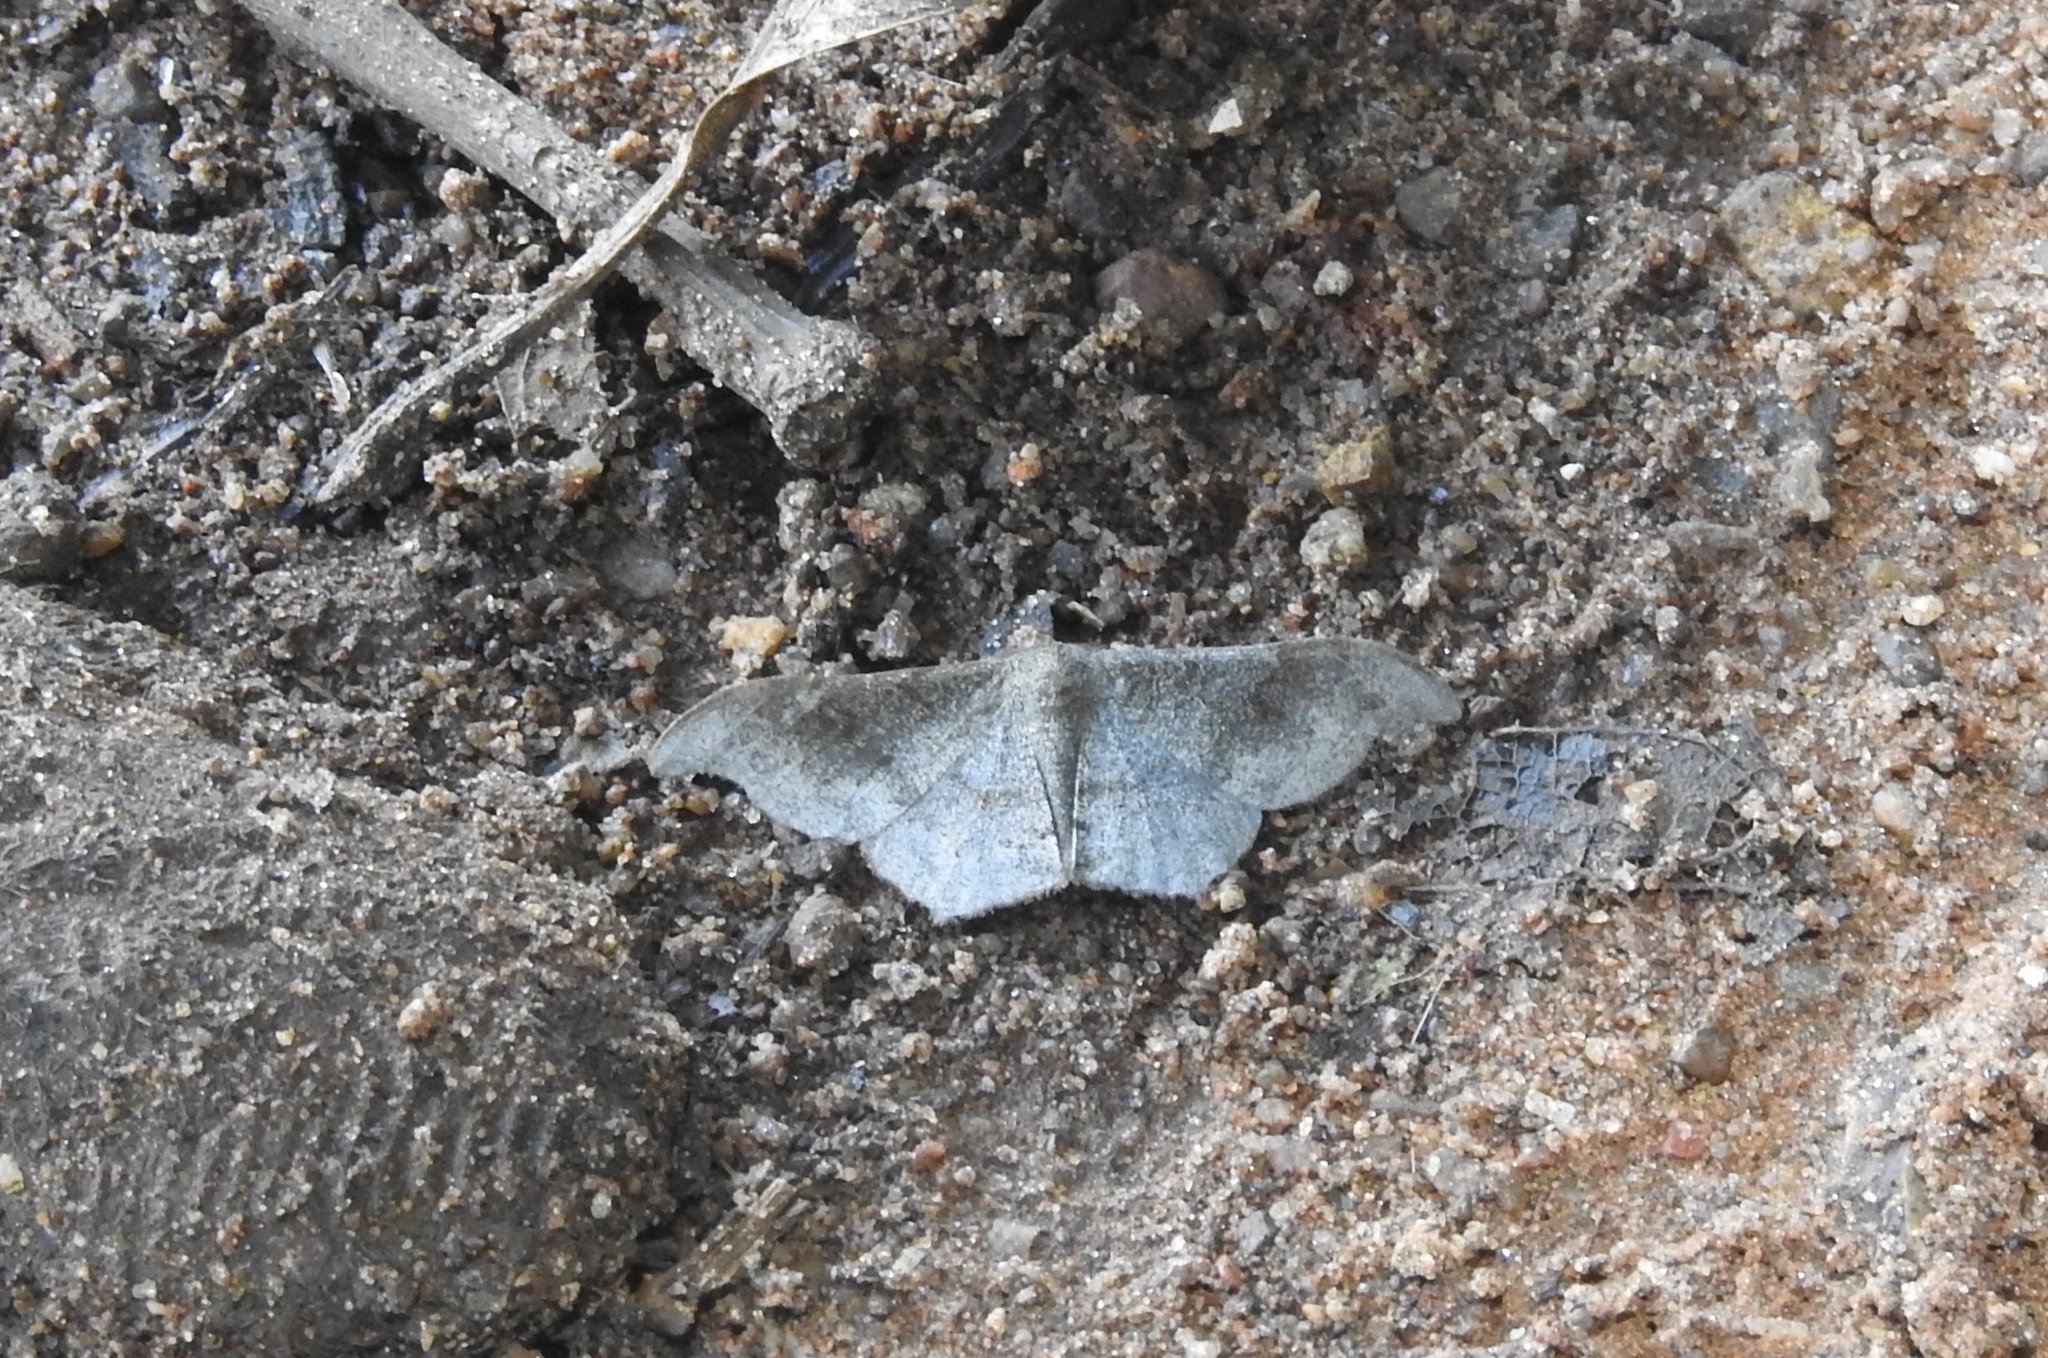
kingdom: Animalia
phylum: Arthropoda
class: Insecta
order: Lepidoptera
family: Geometridae
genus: Hyposidra
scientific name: Hyposidra talaca
